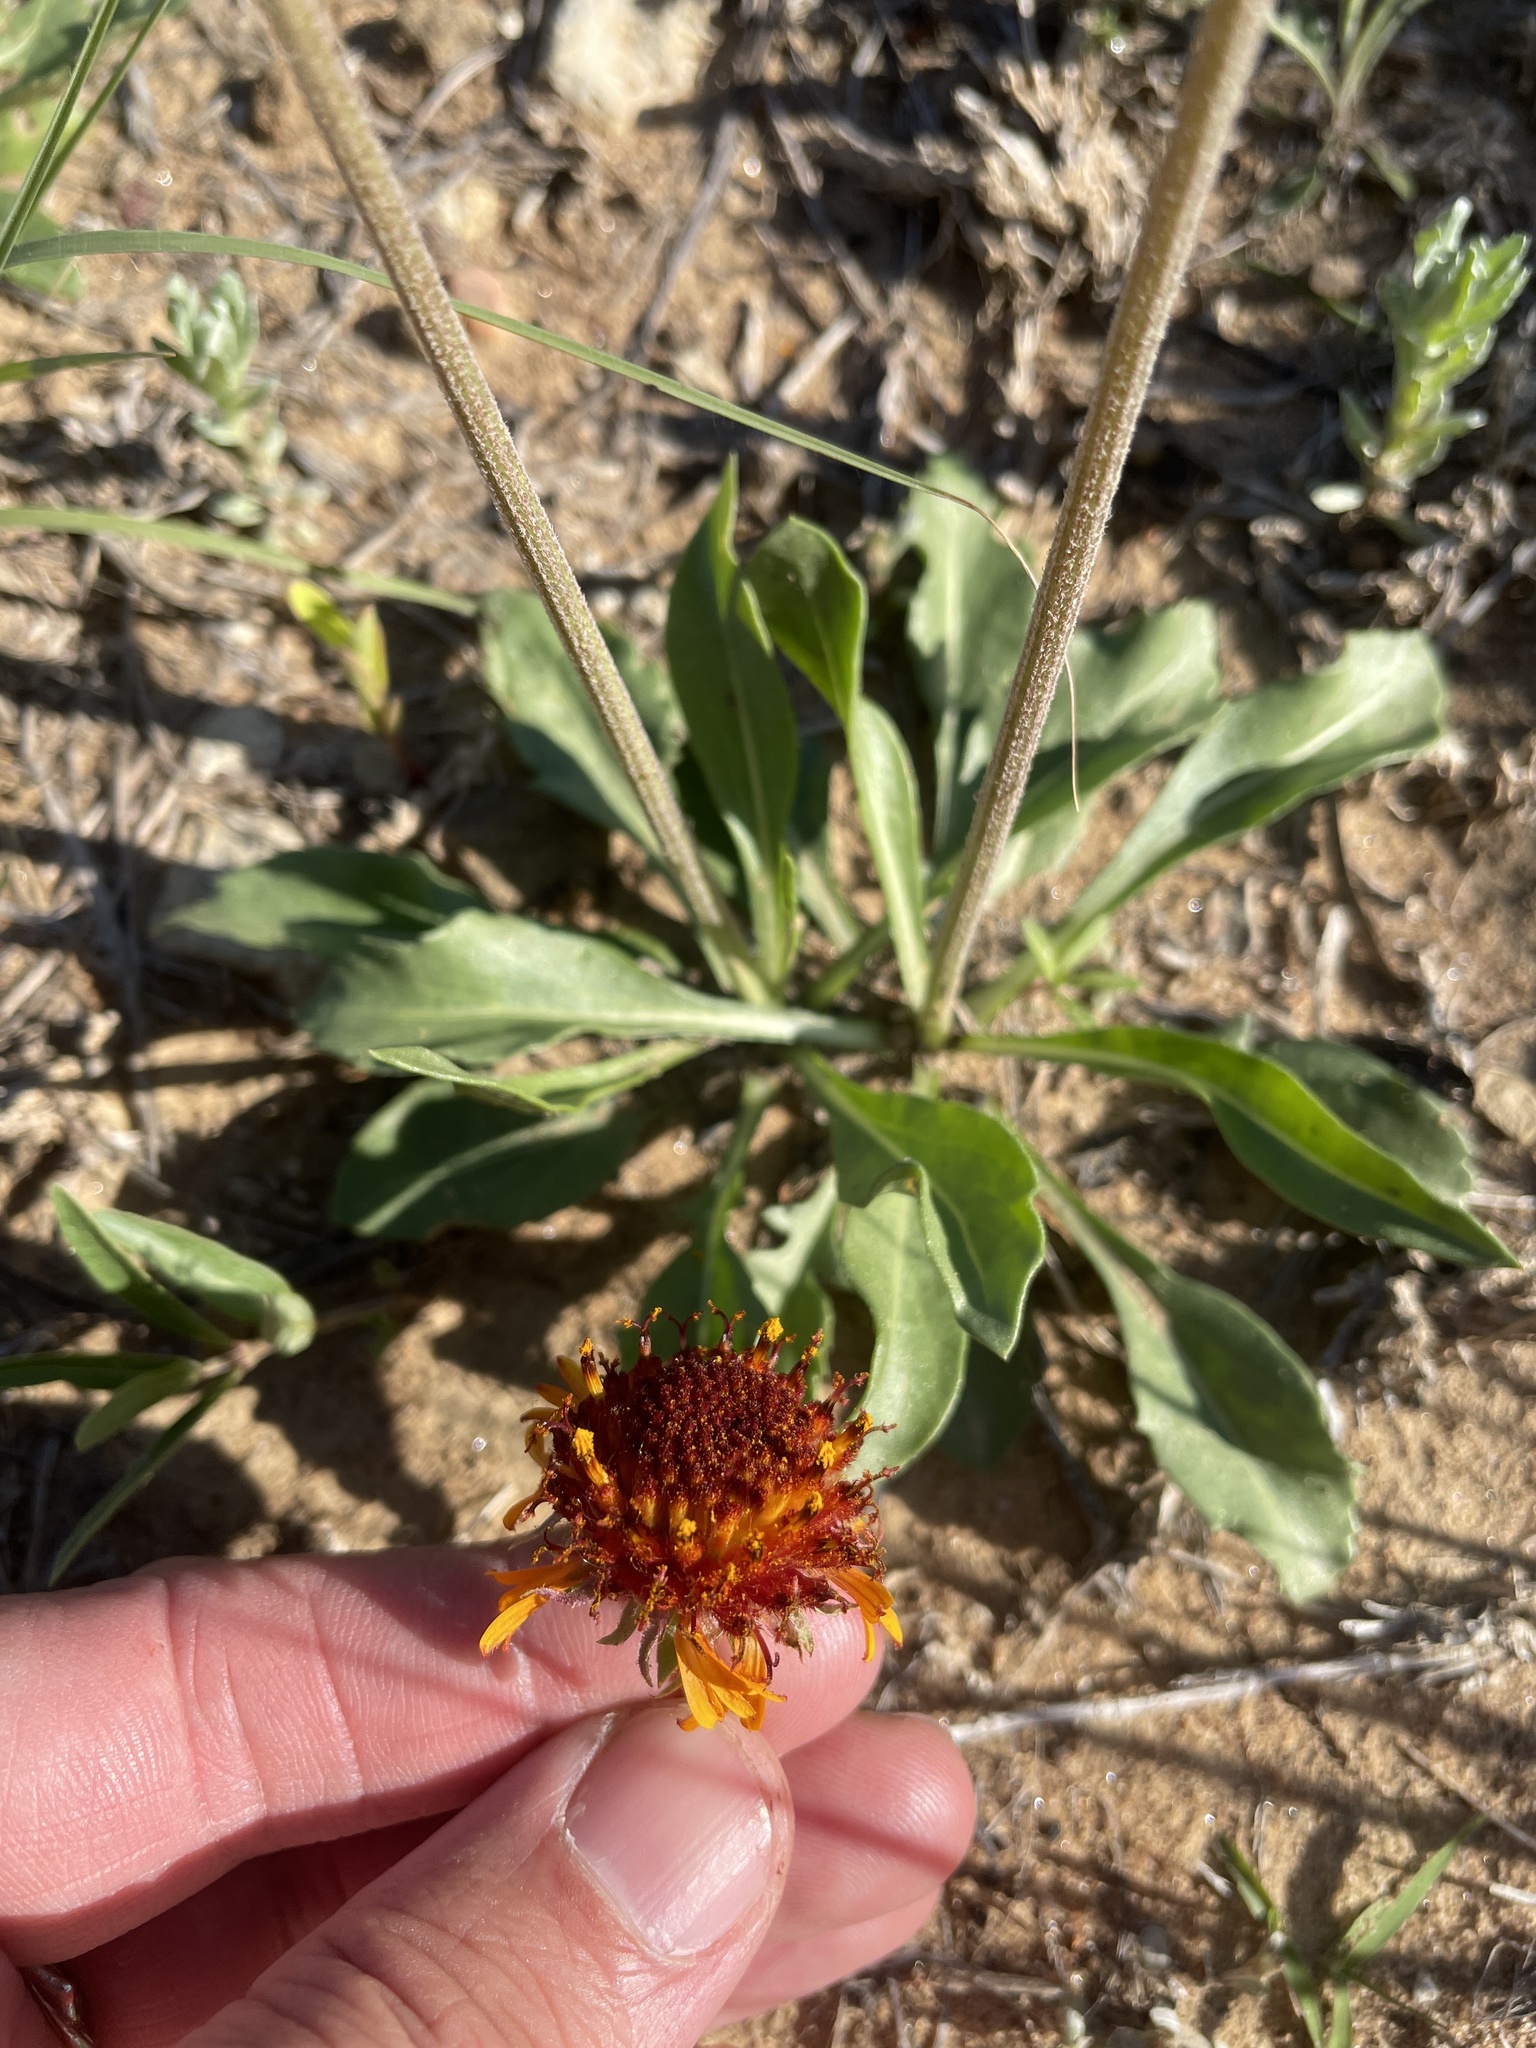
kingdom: Plantae
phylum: Tracheophyta
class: Magnoliopsida
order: Asterales
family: Asteraceae
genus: Gaillardia
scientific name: Gaillardia suavis
